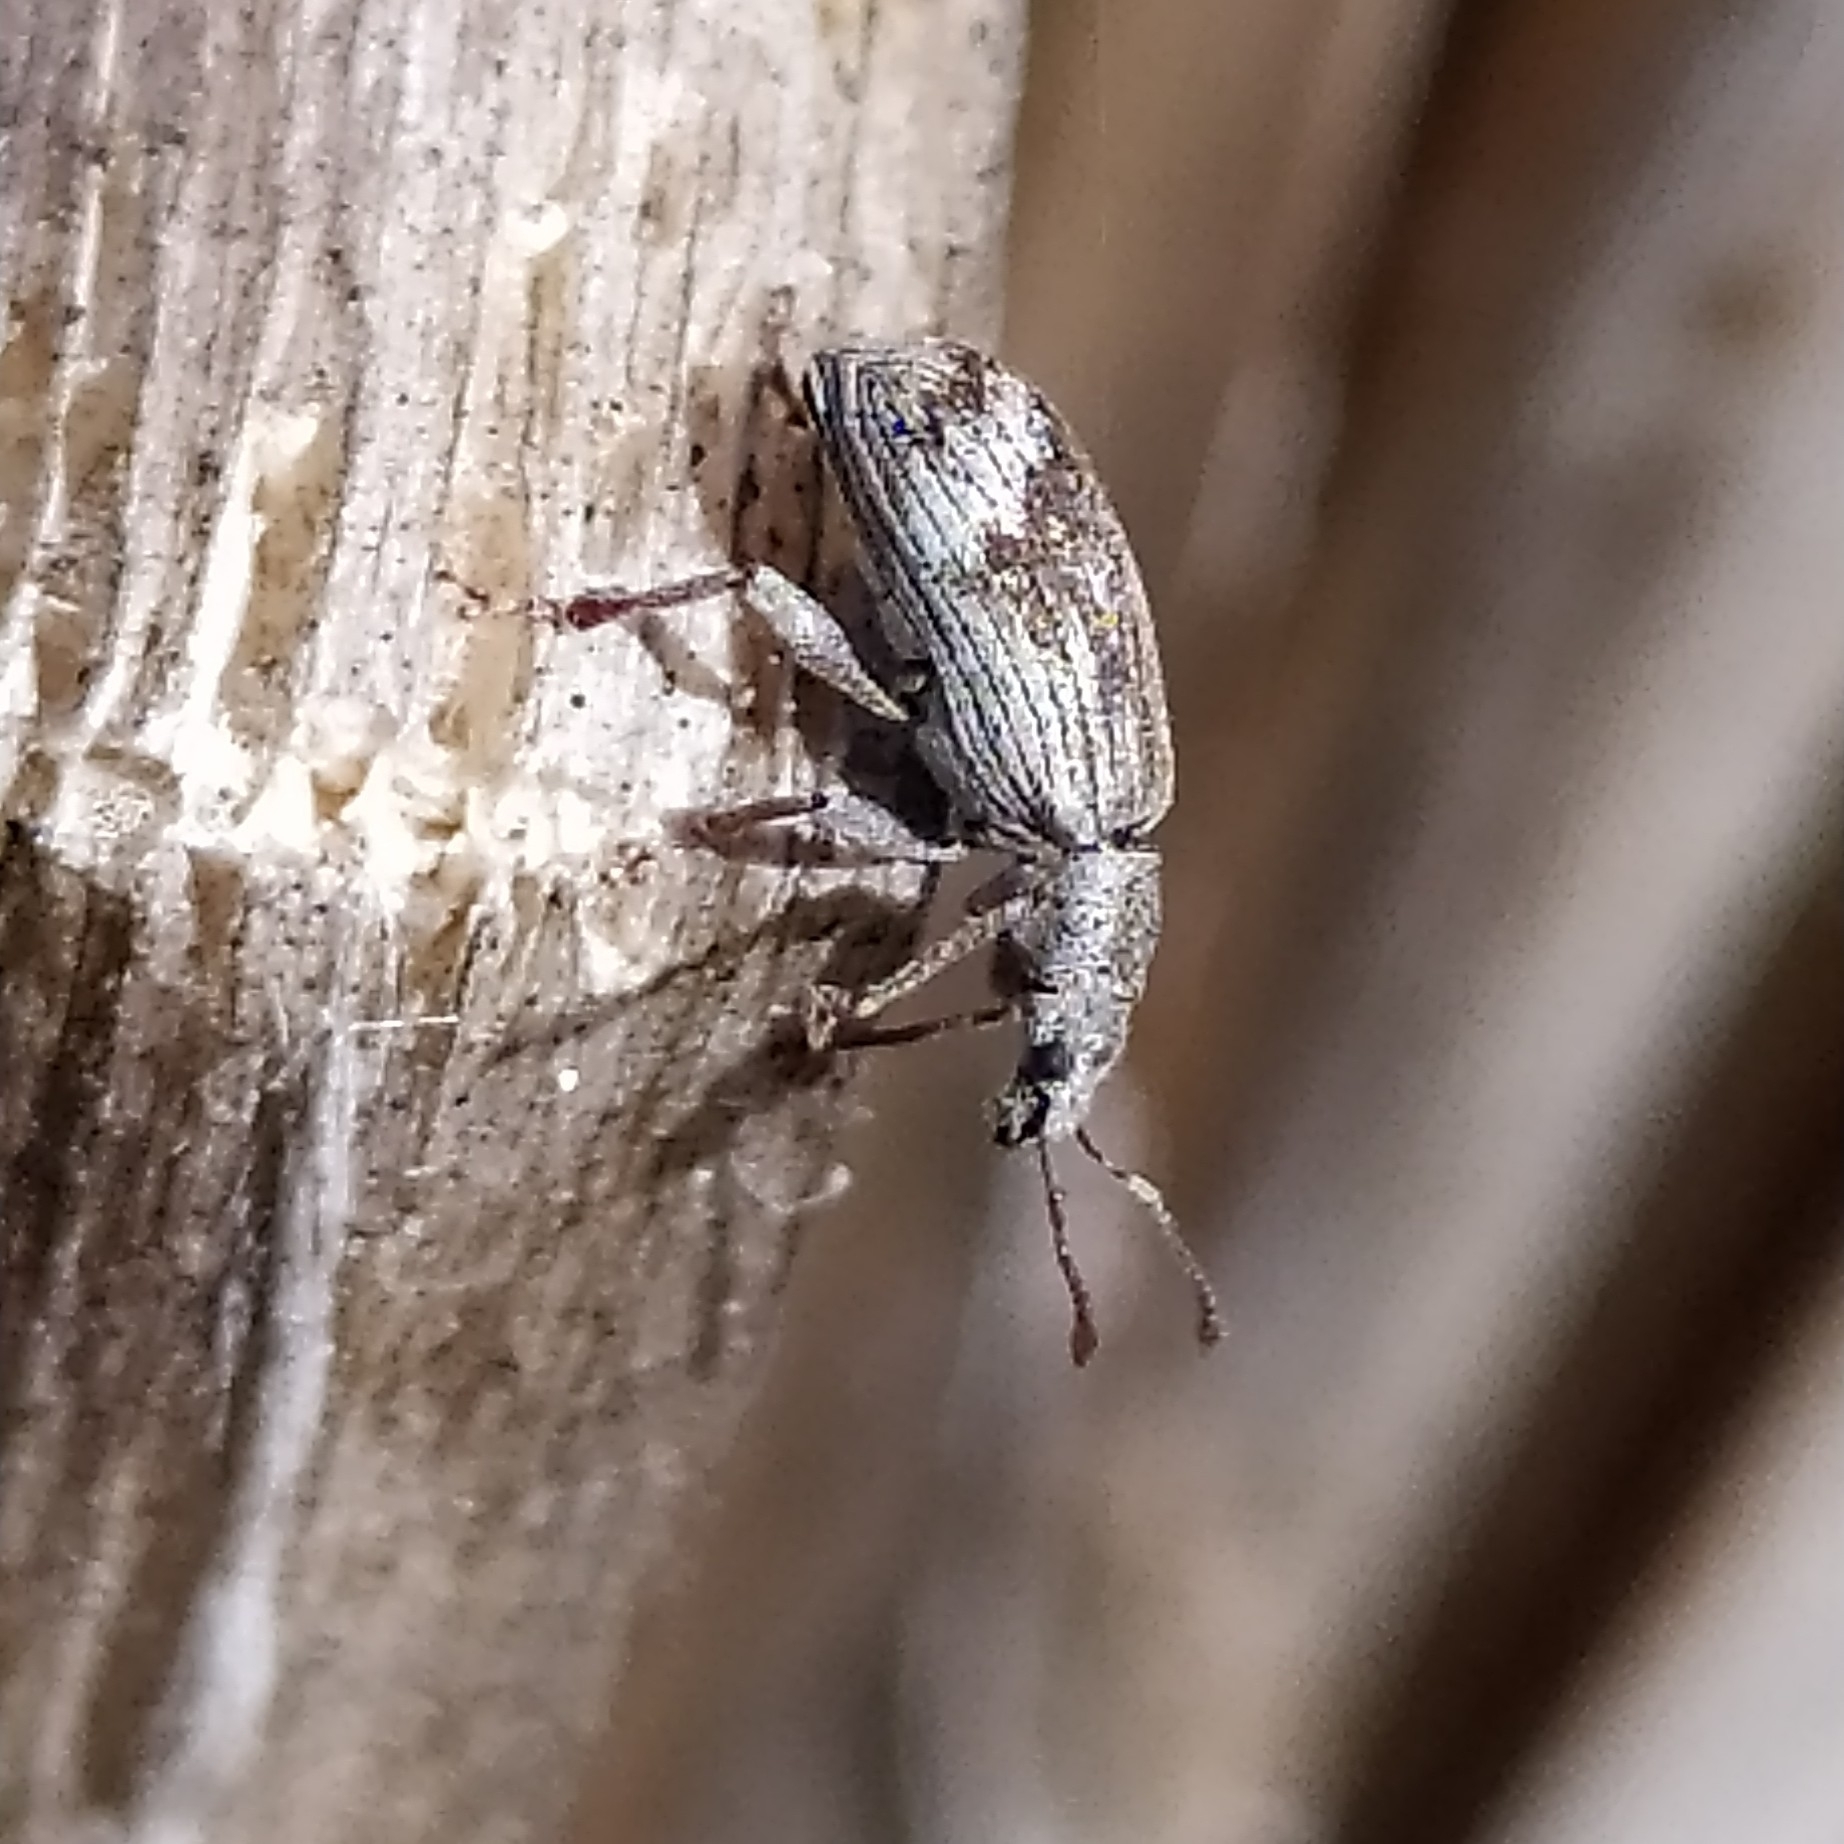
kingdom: Animalia
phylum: Arthropoda
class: Insecta
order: Coleoptera
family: Curculionidae
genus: Polydrusus
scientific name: Polydrusus tereticollis
